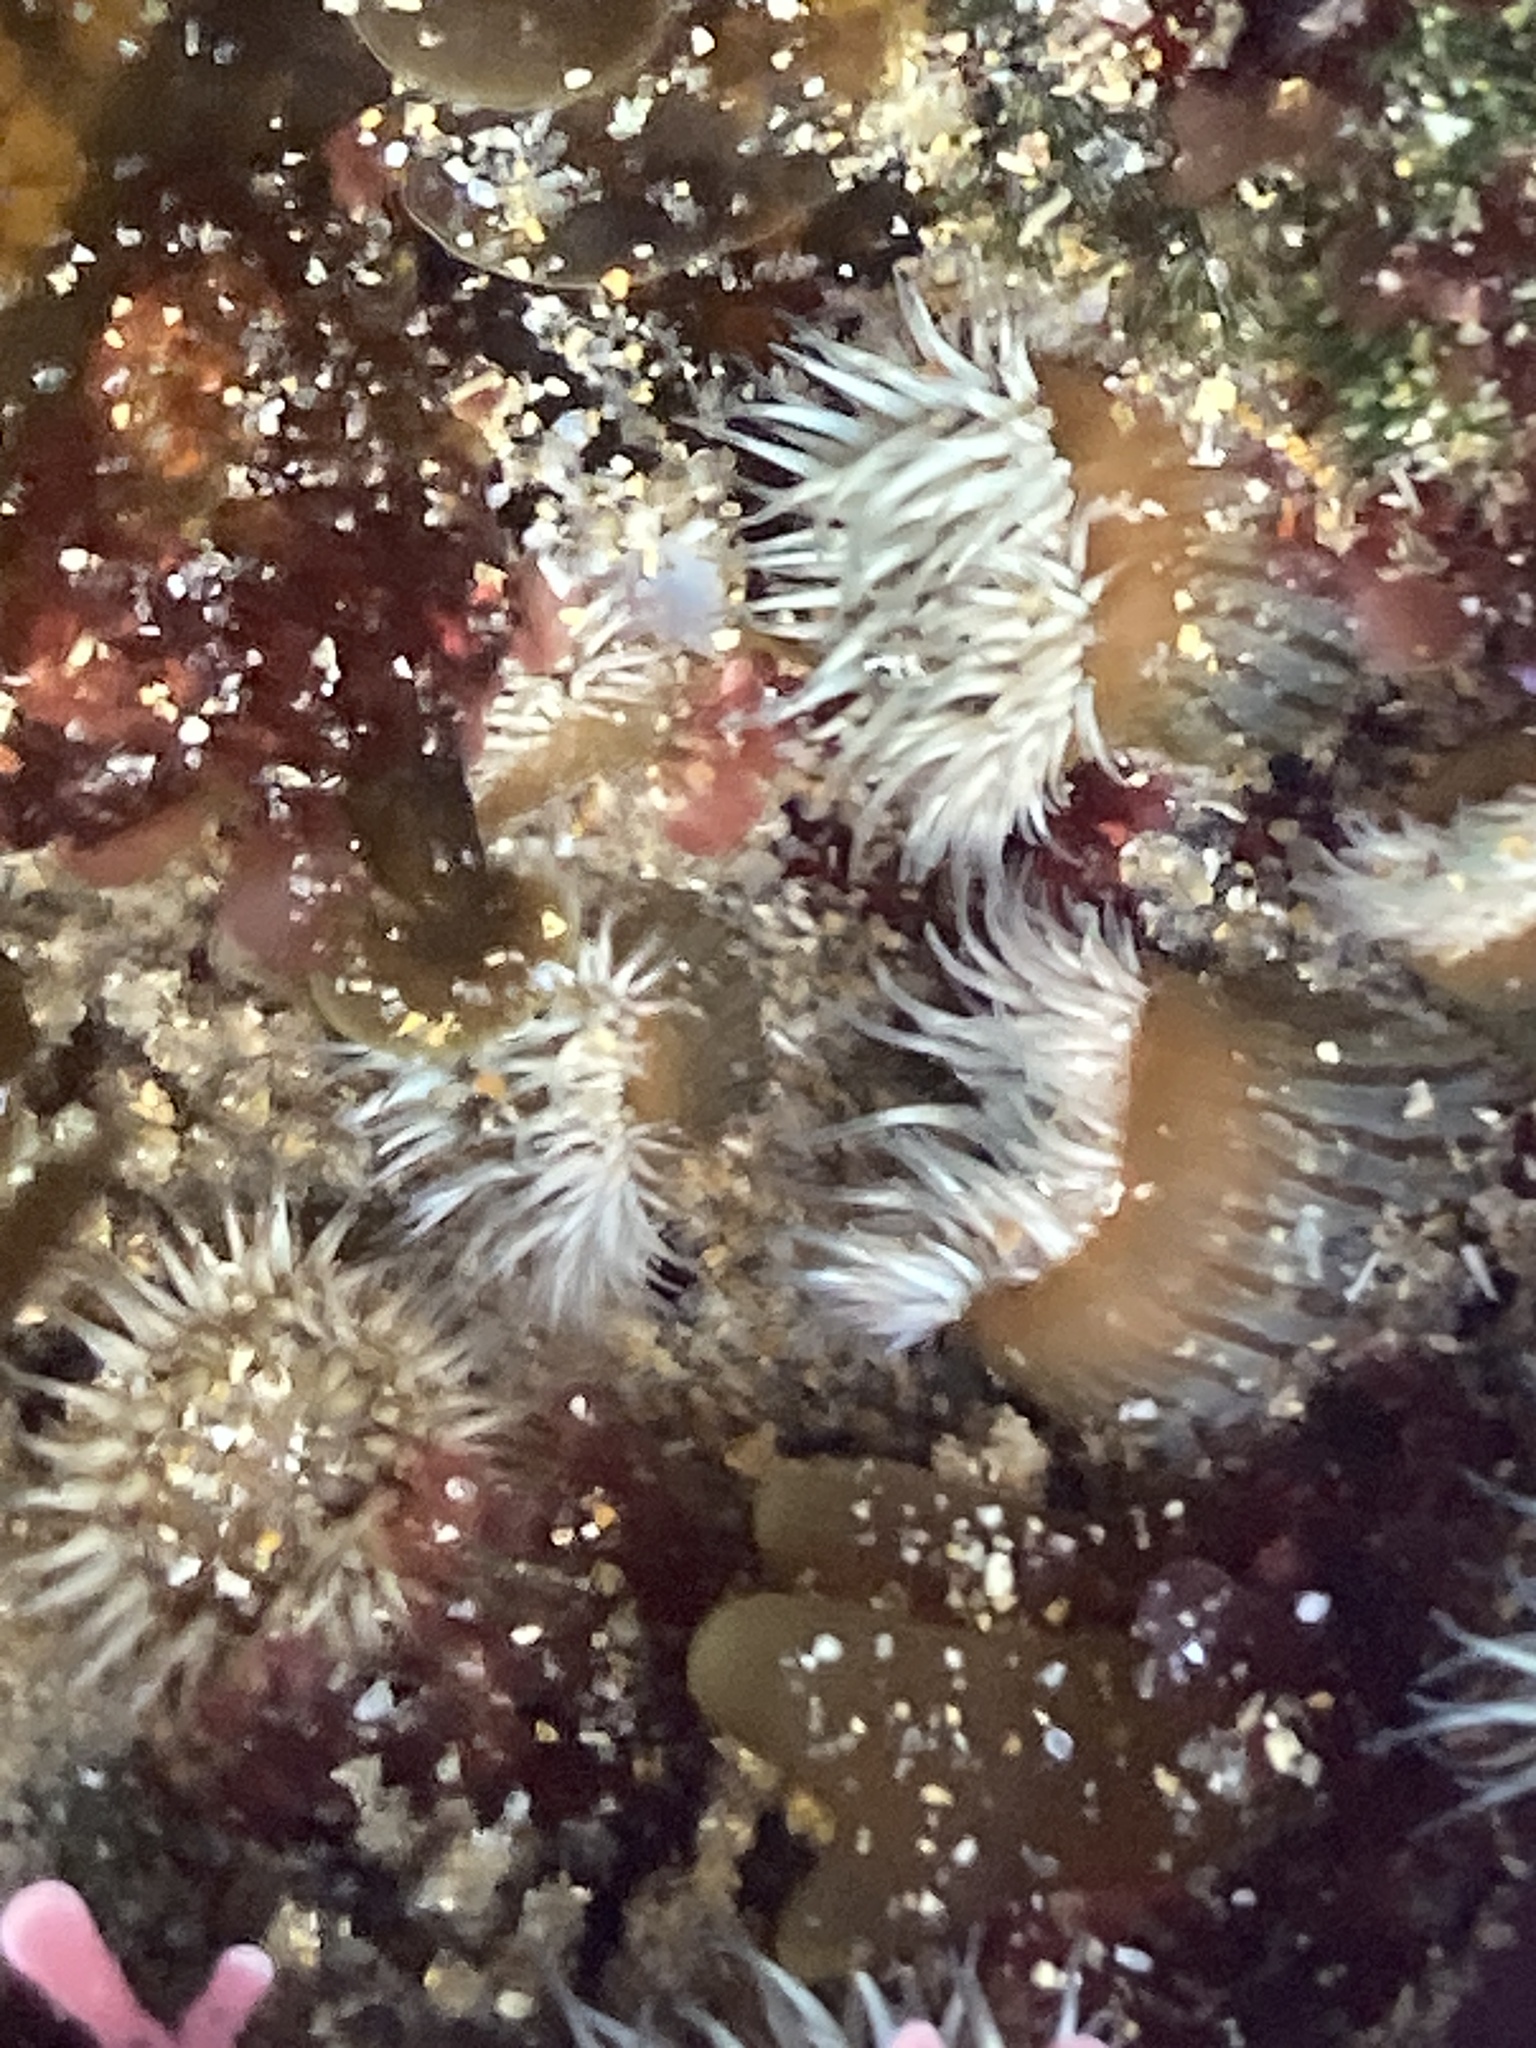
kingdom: Animalia
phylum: Cnidaria
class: Anthozoa
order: Actiniaria
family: Sagartiidae
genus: Anthothoe
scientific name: Anthothoe albocincta
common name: Orange striped anemone
